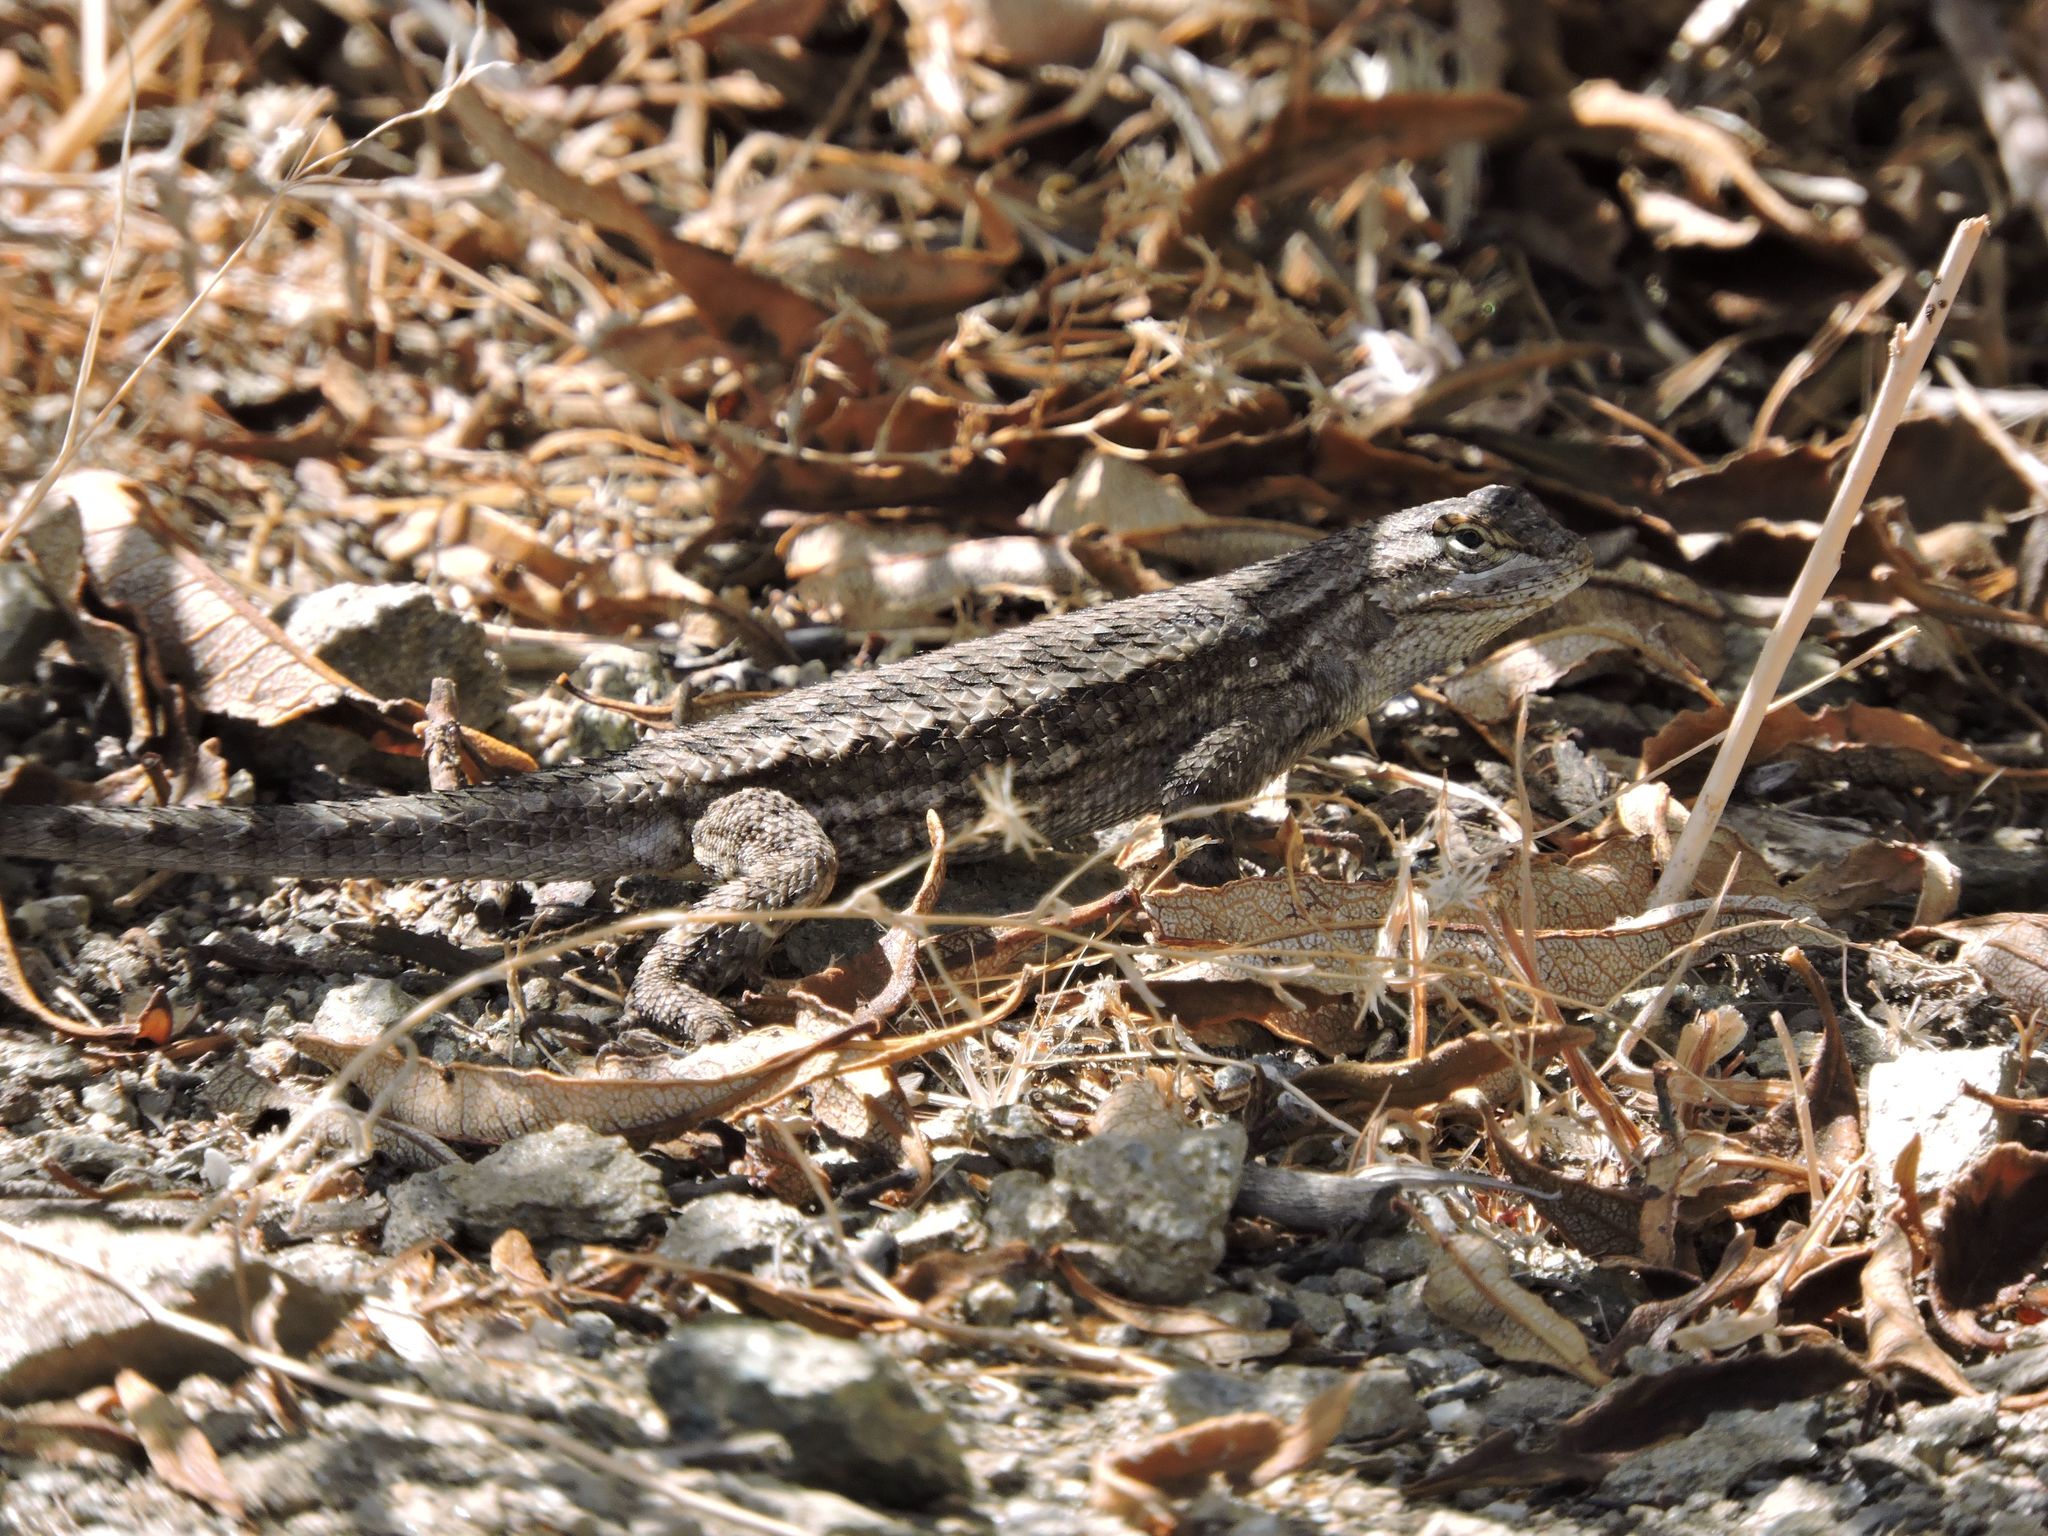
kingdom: Animalia
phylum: Chordata
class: Squamata
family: Phrynosomatidae
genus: Sceloporus
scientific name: Sceloporus occidentalis
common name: Western fence lizard
